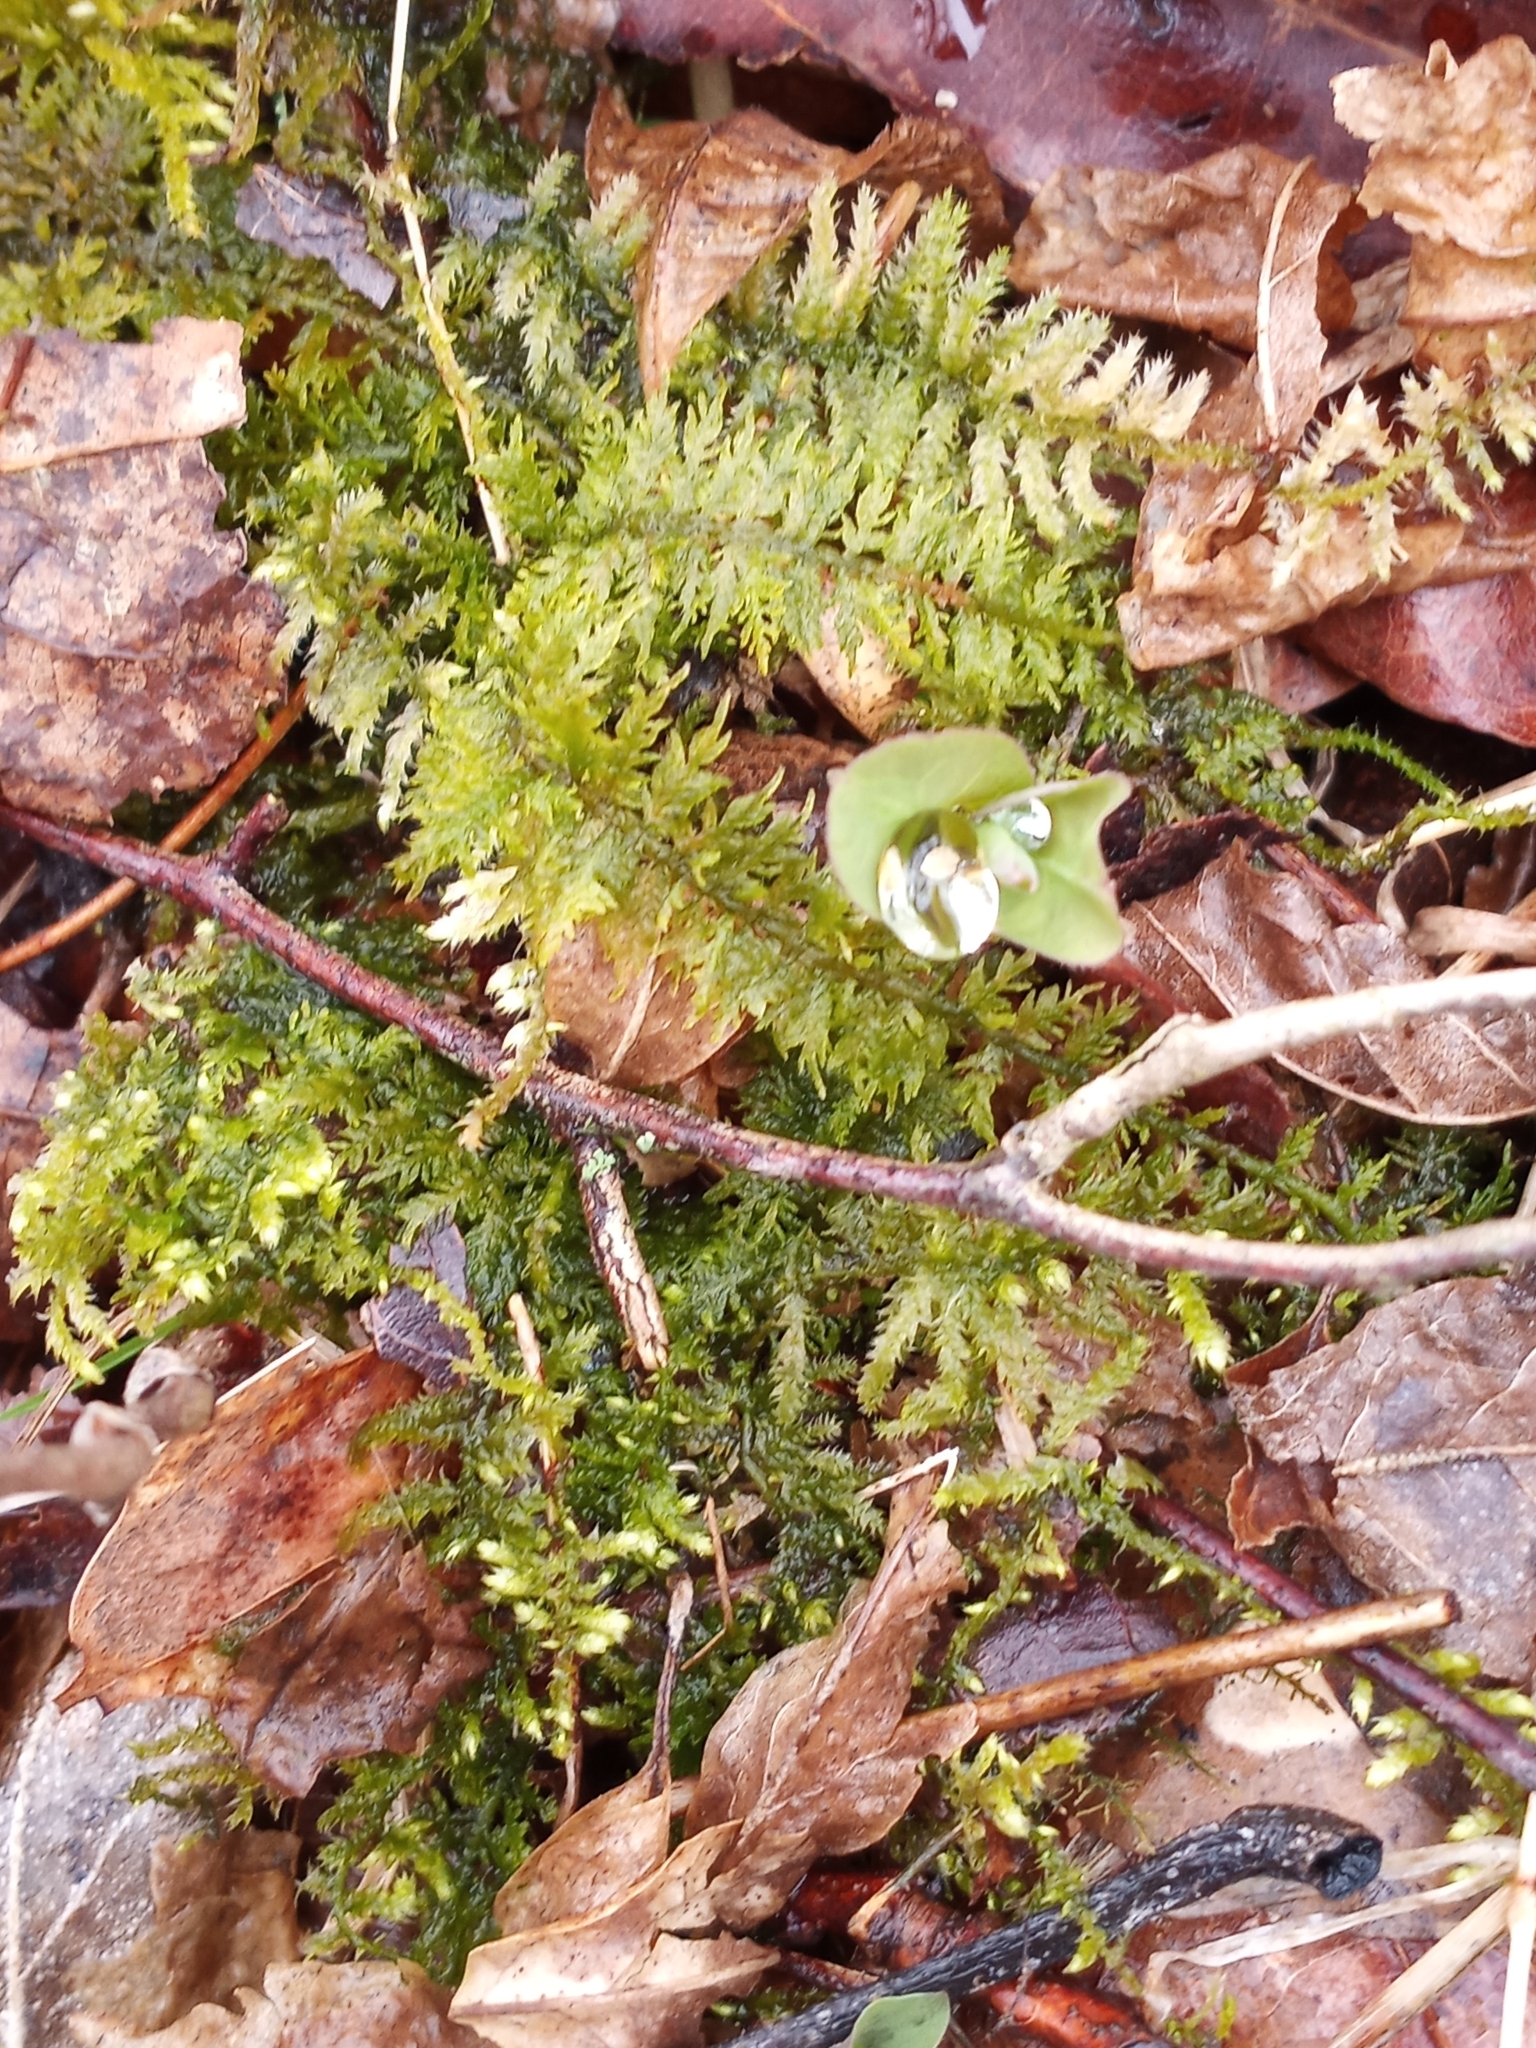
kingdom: Plantae
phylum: Bryophyta
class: Bryopsida
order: Hypnales
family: Thuidiaceae
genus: Thuidium
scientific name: Thuidium delicatulum
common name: Delicate fern moss
